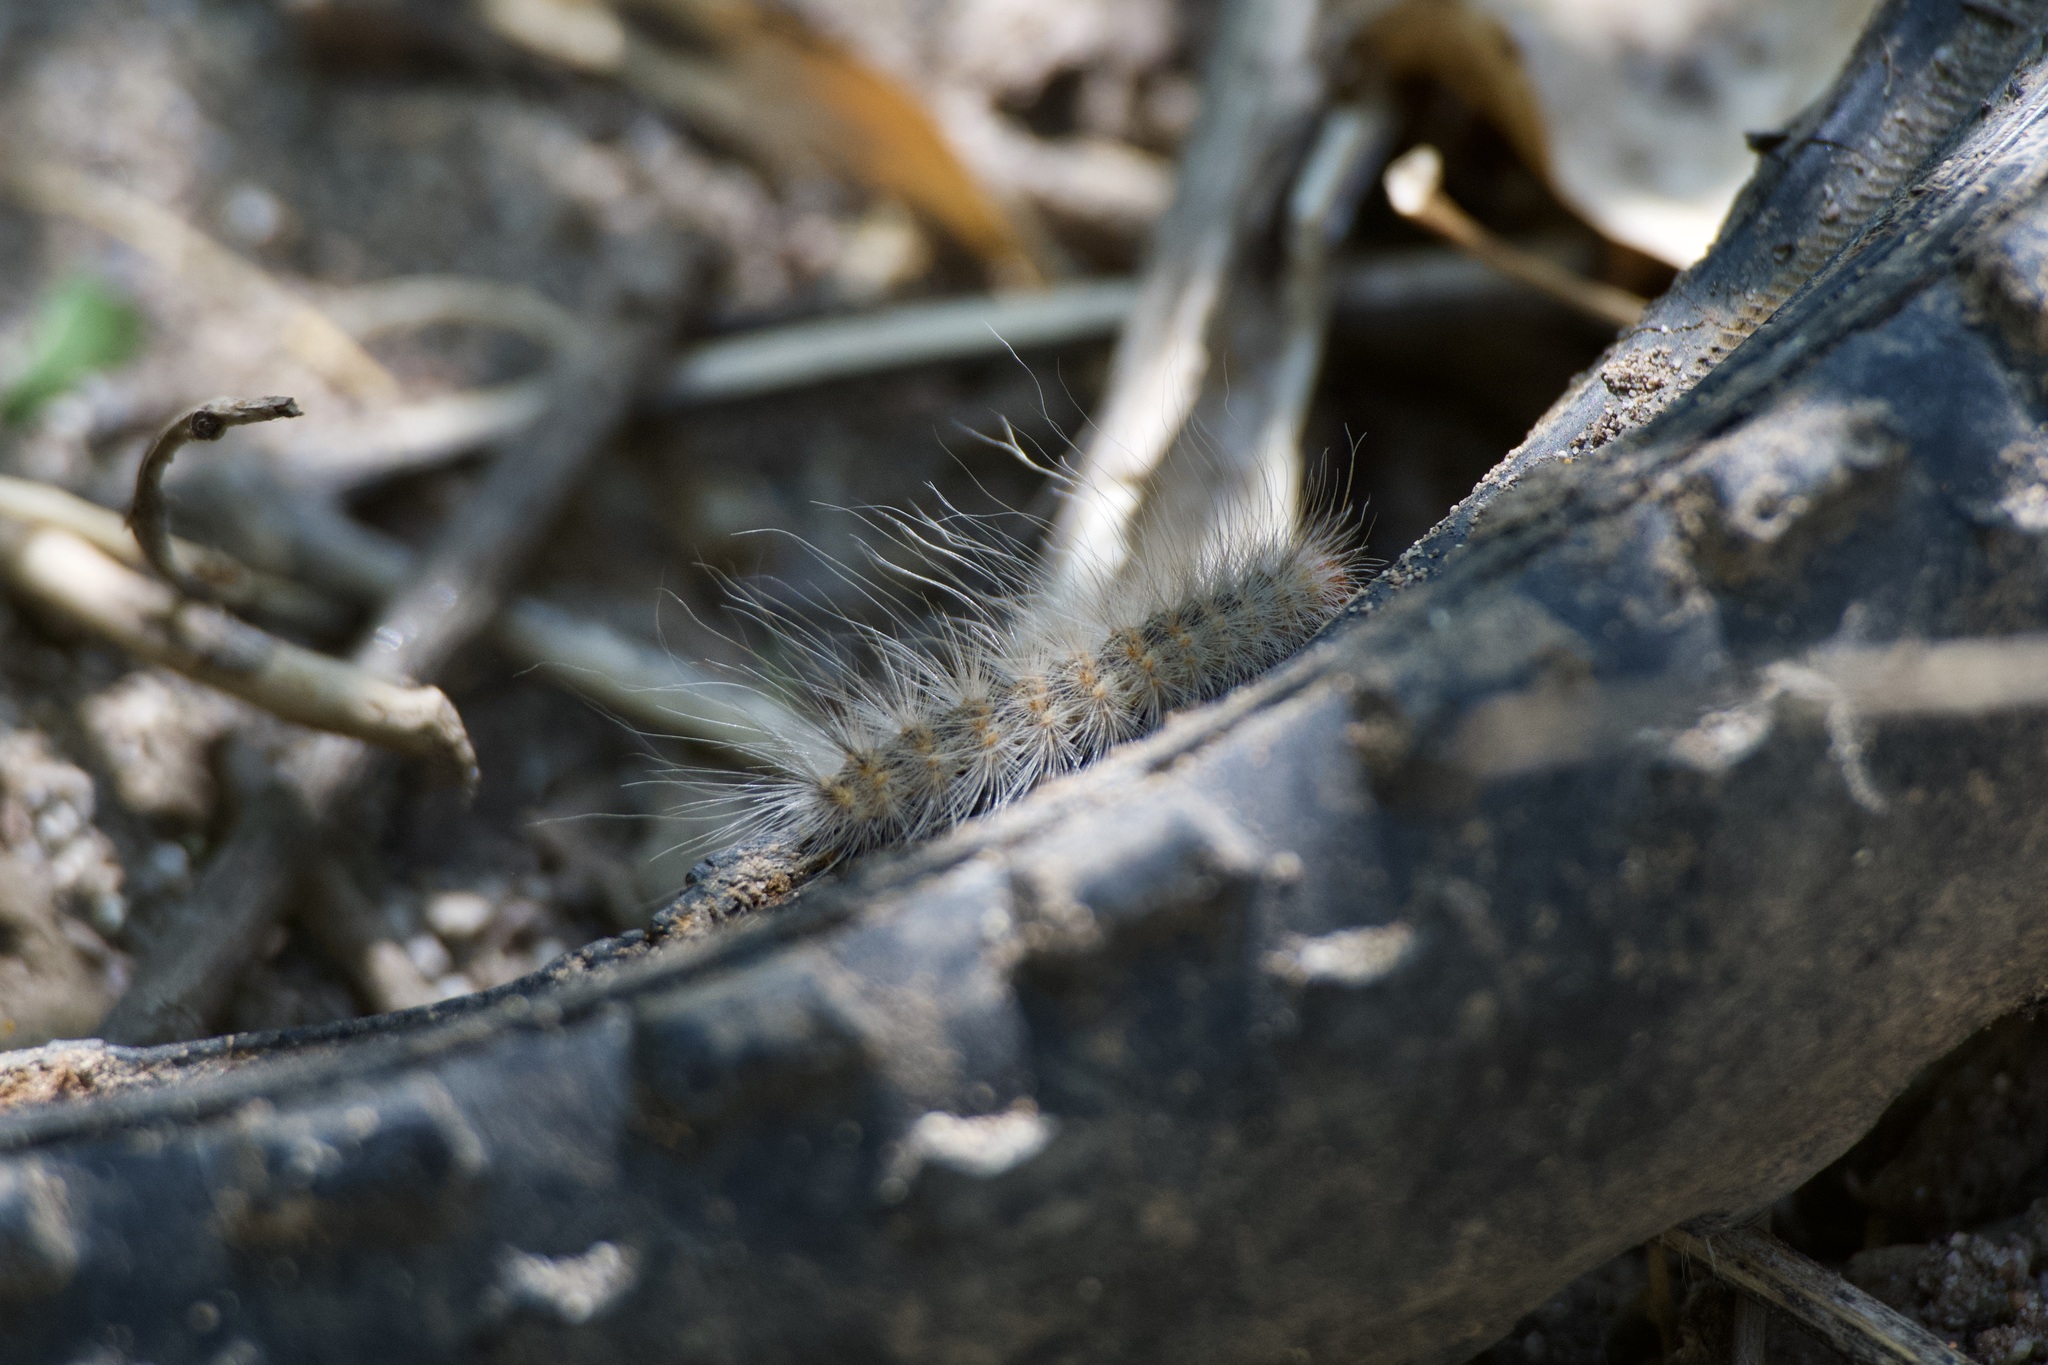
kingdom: Animalia
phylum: Arthropoda
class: Insecta
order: Lepidoptera
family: Erebidae
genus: Hyphantria
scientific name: Hyphantria cunea
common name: American white moth
